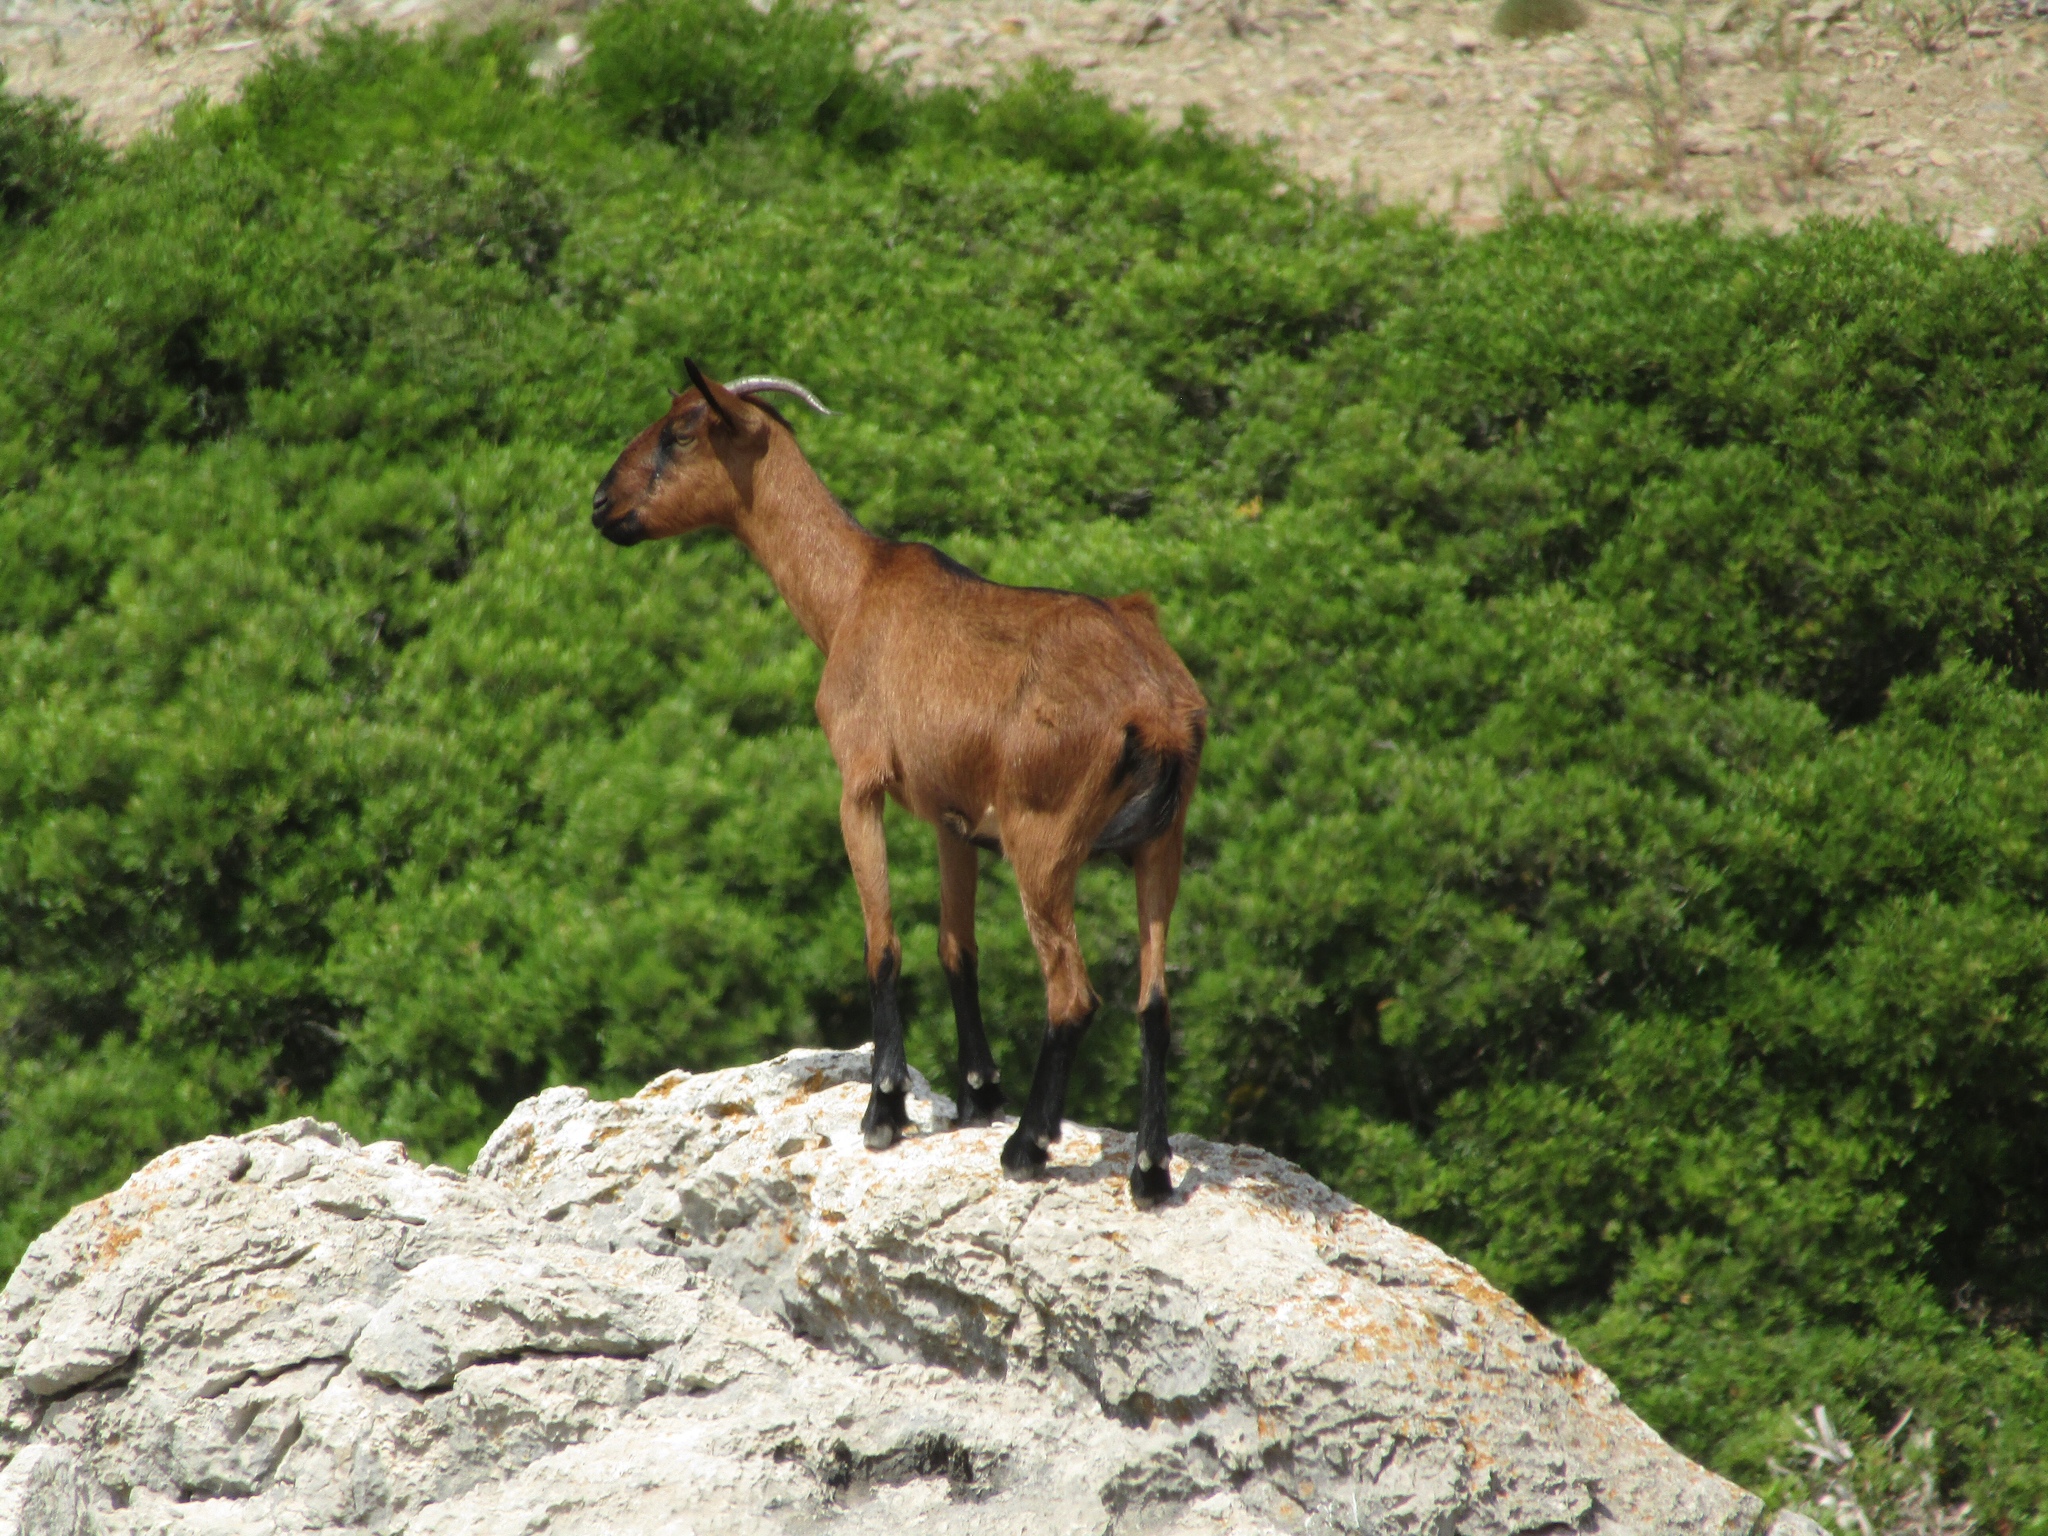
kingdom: Animalia
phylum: Chordata
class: Mammalia
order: Artiodactyla
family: Bovidae
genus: Capra
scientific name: Capra hircus
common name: Domestic goat
